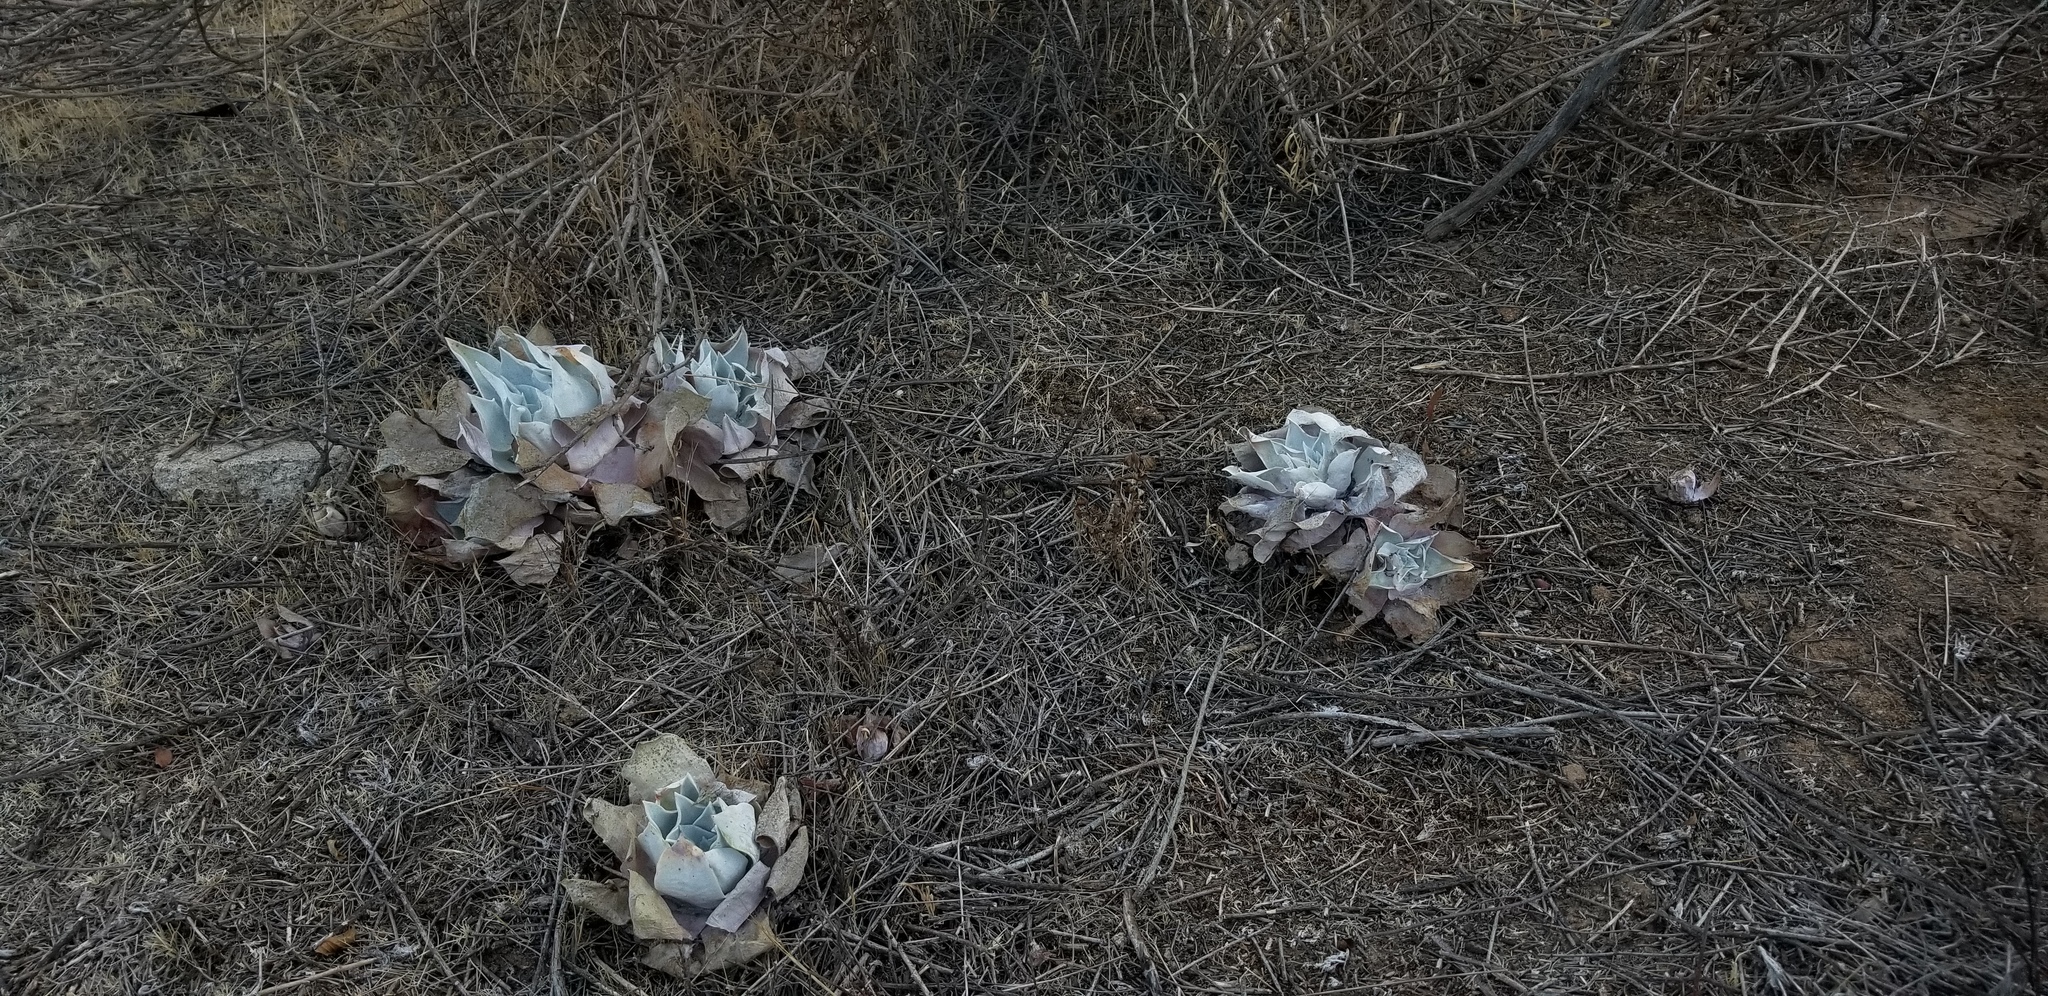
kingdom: Plantae
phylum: Tracheophyta
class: Magnoliopsida
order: Saxifragales
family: Crassulaceae
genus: Dudleya
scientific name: Dudleya pulverulenta
